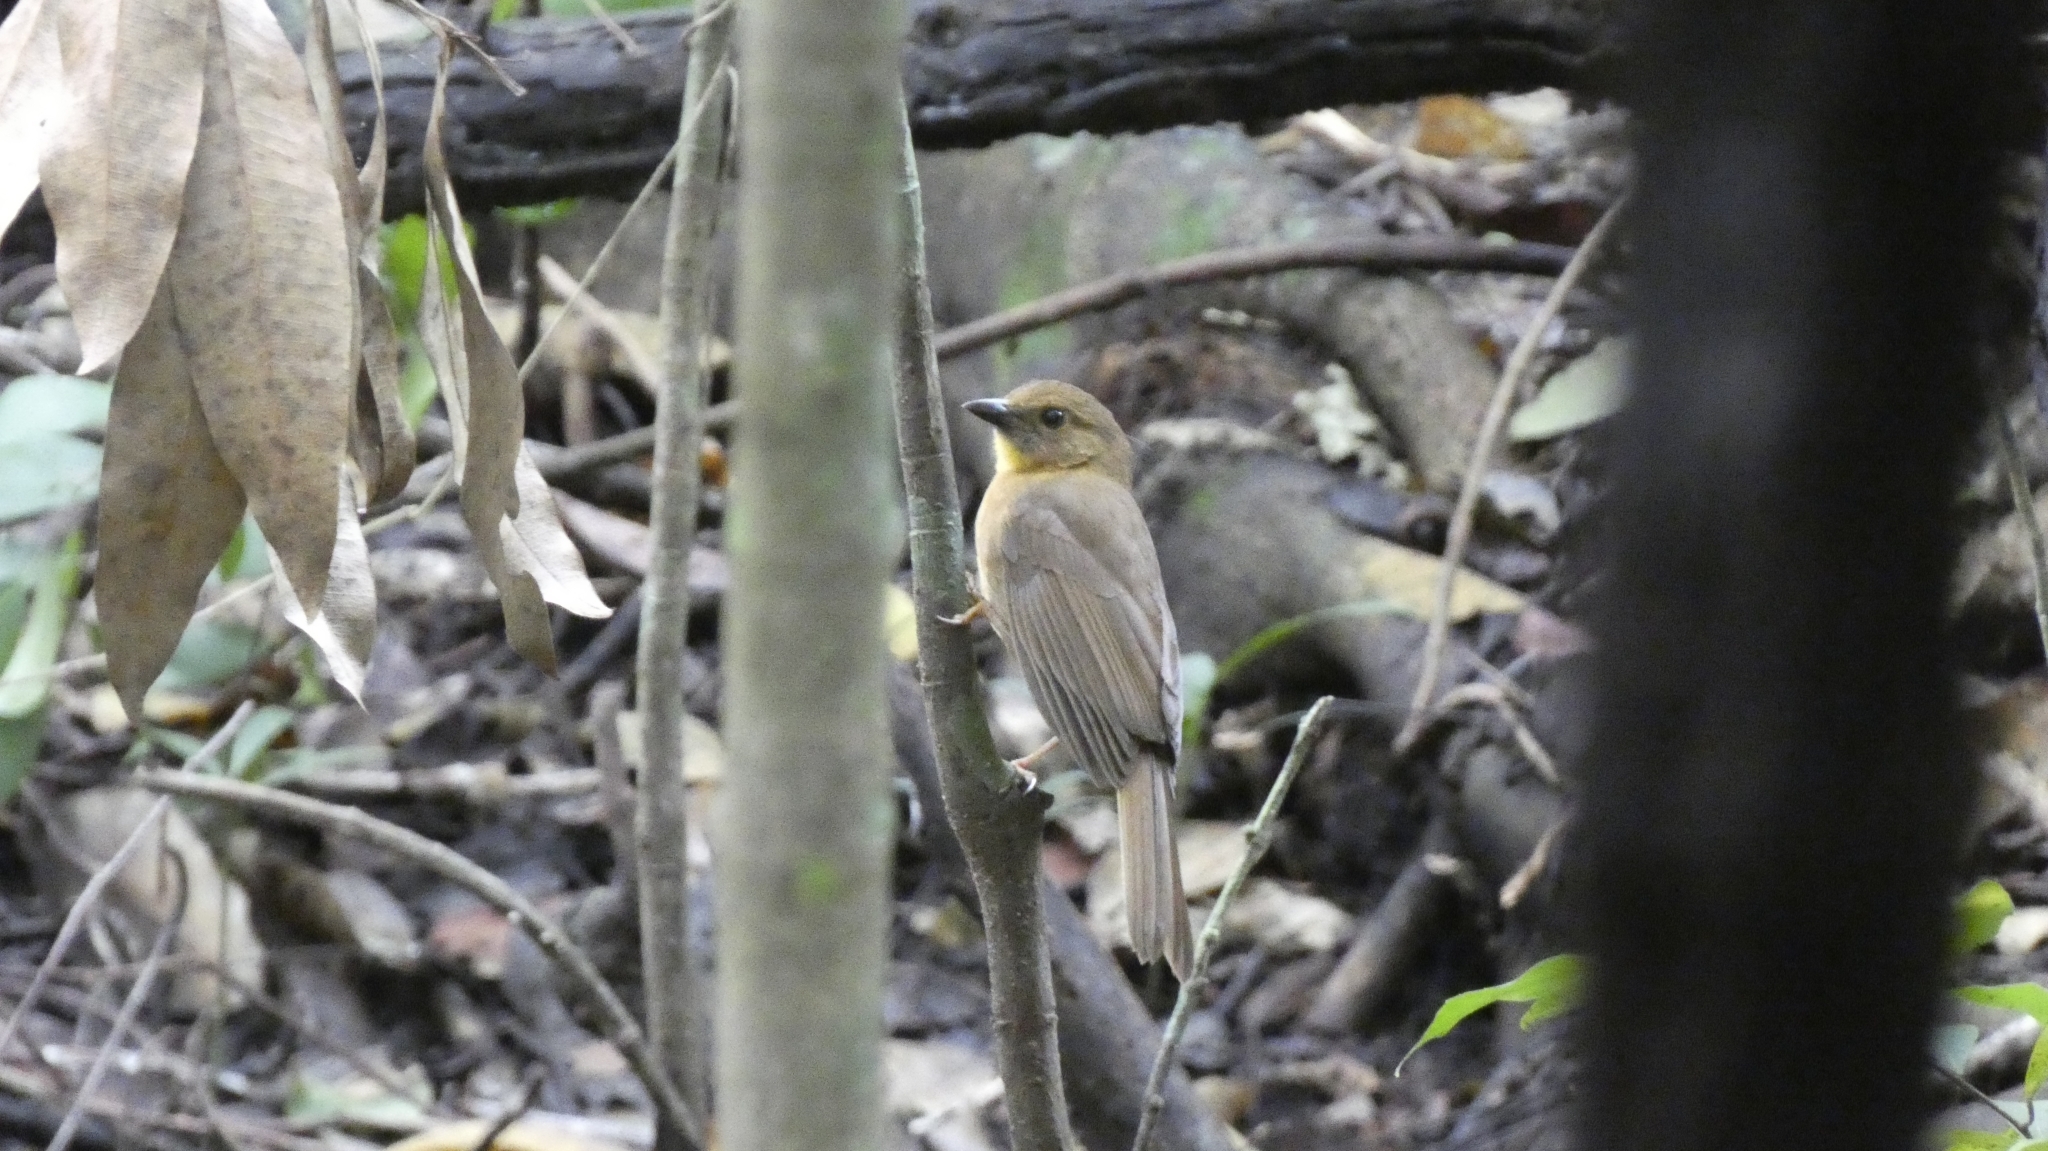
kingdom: Animalia
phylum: Chordata
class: Aves
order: Passeriformes
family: Cardinalidae
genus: Habia
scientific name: Habia fuscicauda
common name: Red-throated ant-tanager
